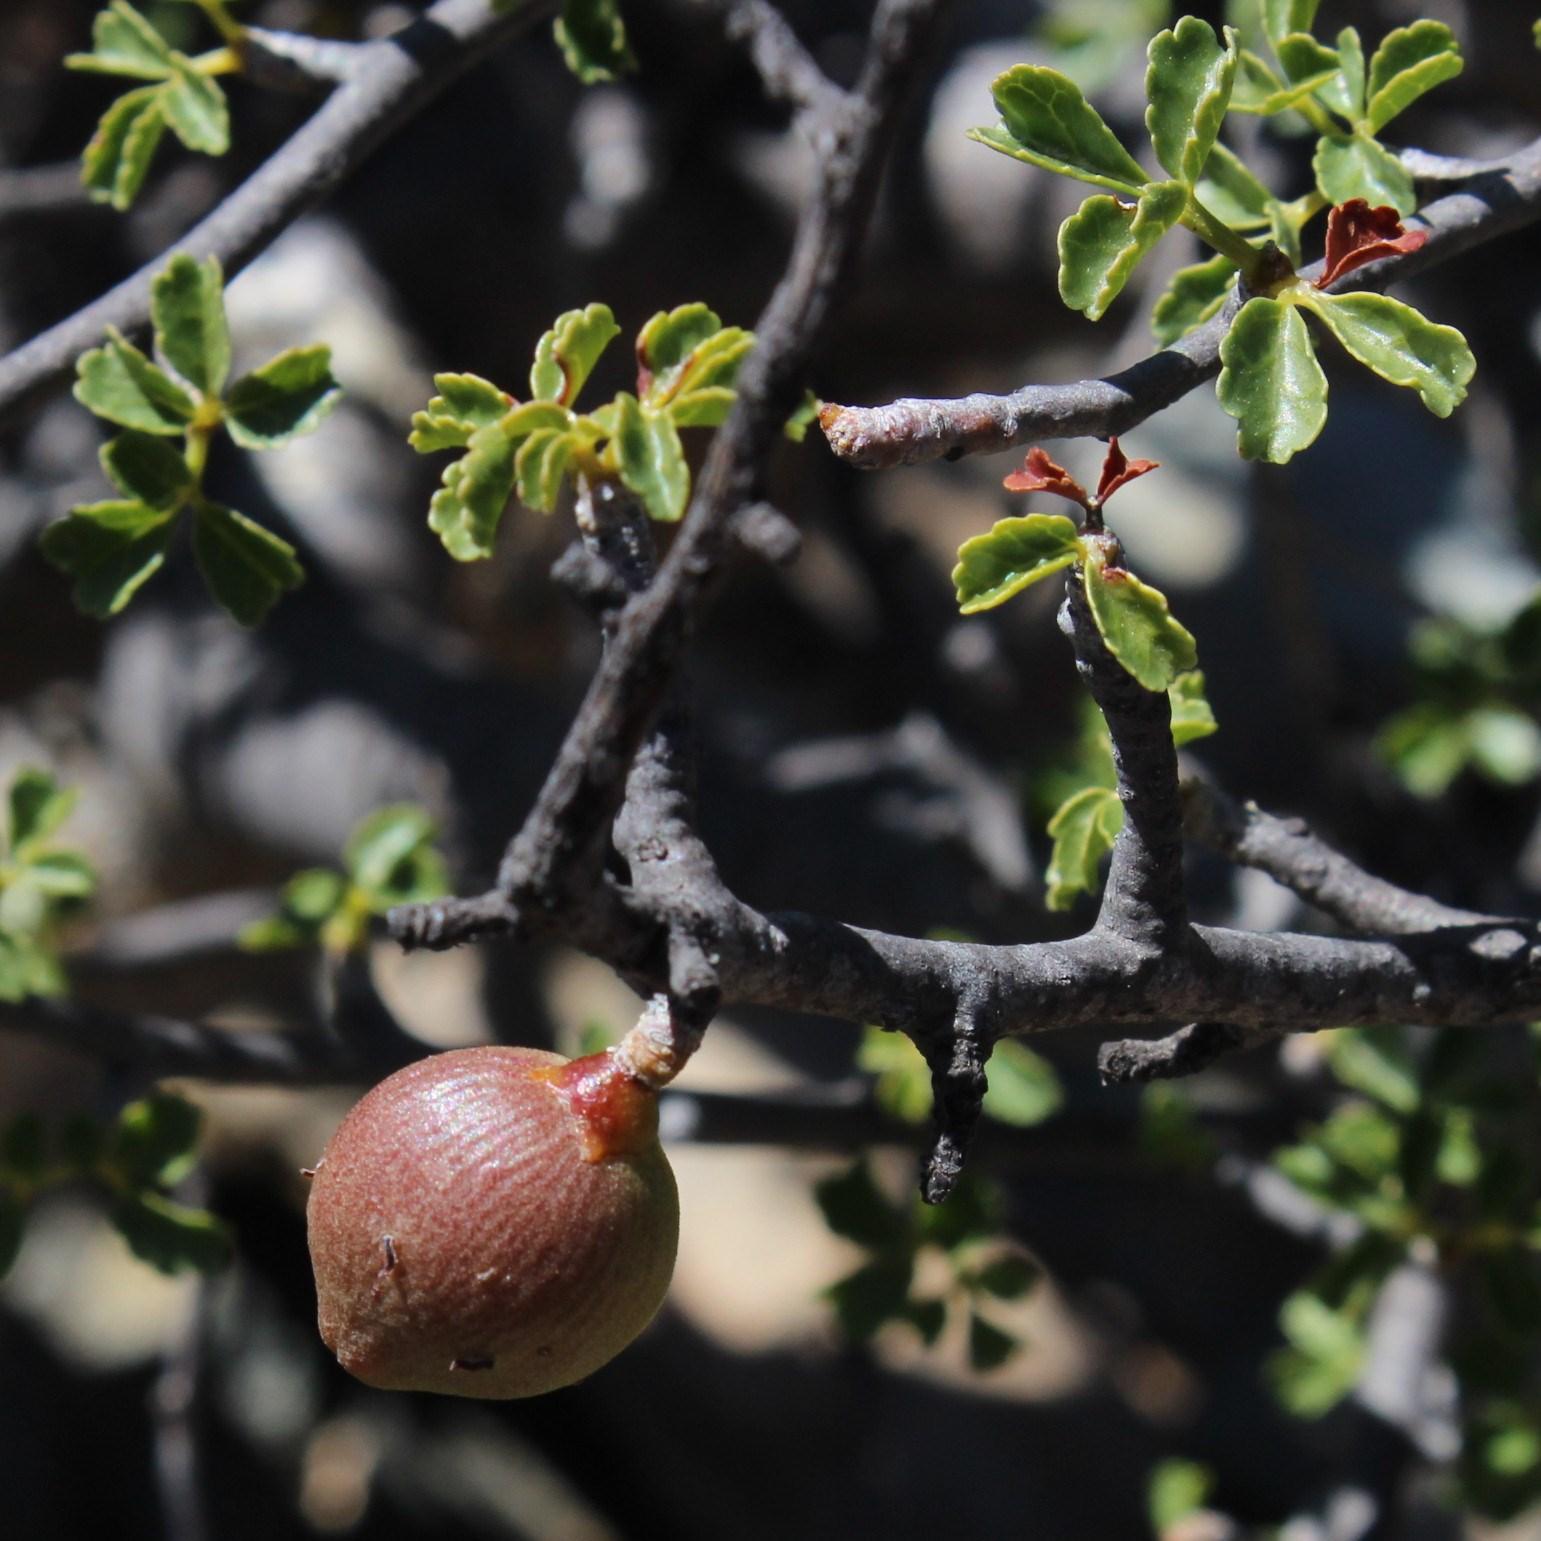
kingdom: Plantae
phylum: Tracheophyta
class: Magnoliopsida
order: Sapindales
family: Burseraceae
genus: Commiphora
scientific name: Commiphora capensis
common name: Namaqua commiphora
